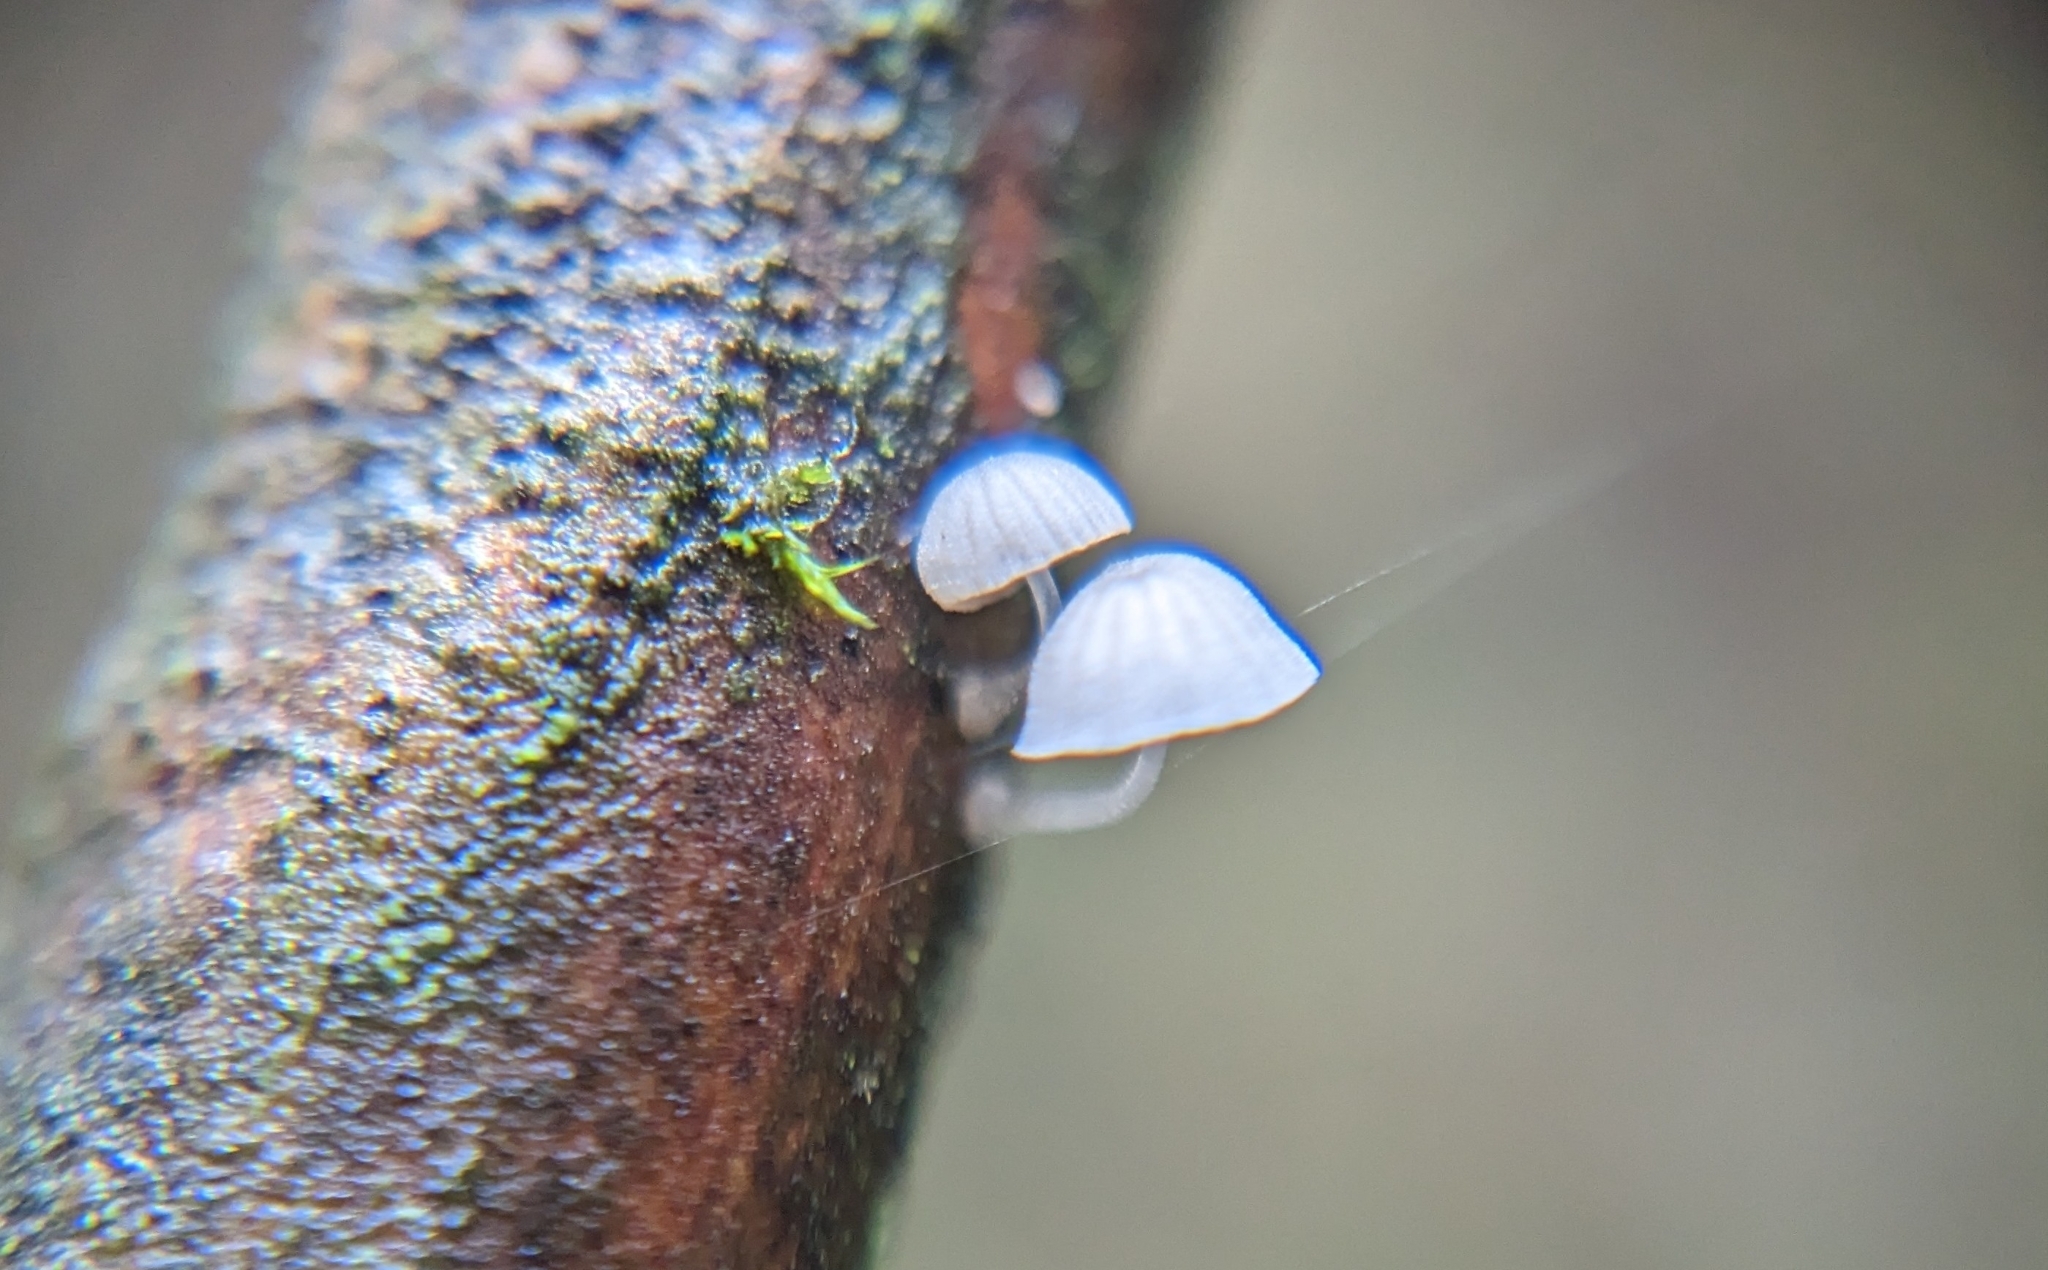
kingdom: Fungi
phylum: Basidiomycota
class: Agaricomycetes
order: Agaricales
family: Mycenaceae
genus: Mycena
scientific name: Mycena tenerrima
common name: Frosty bonnet
